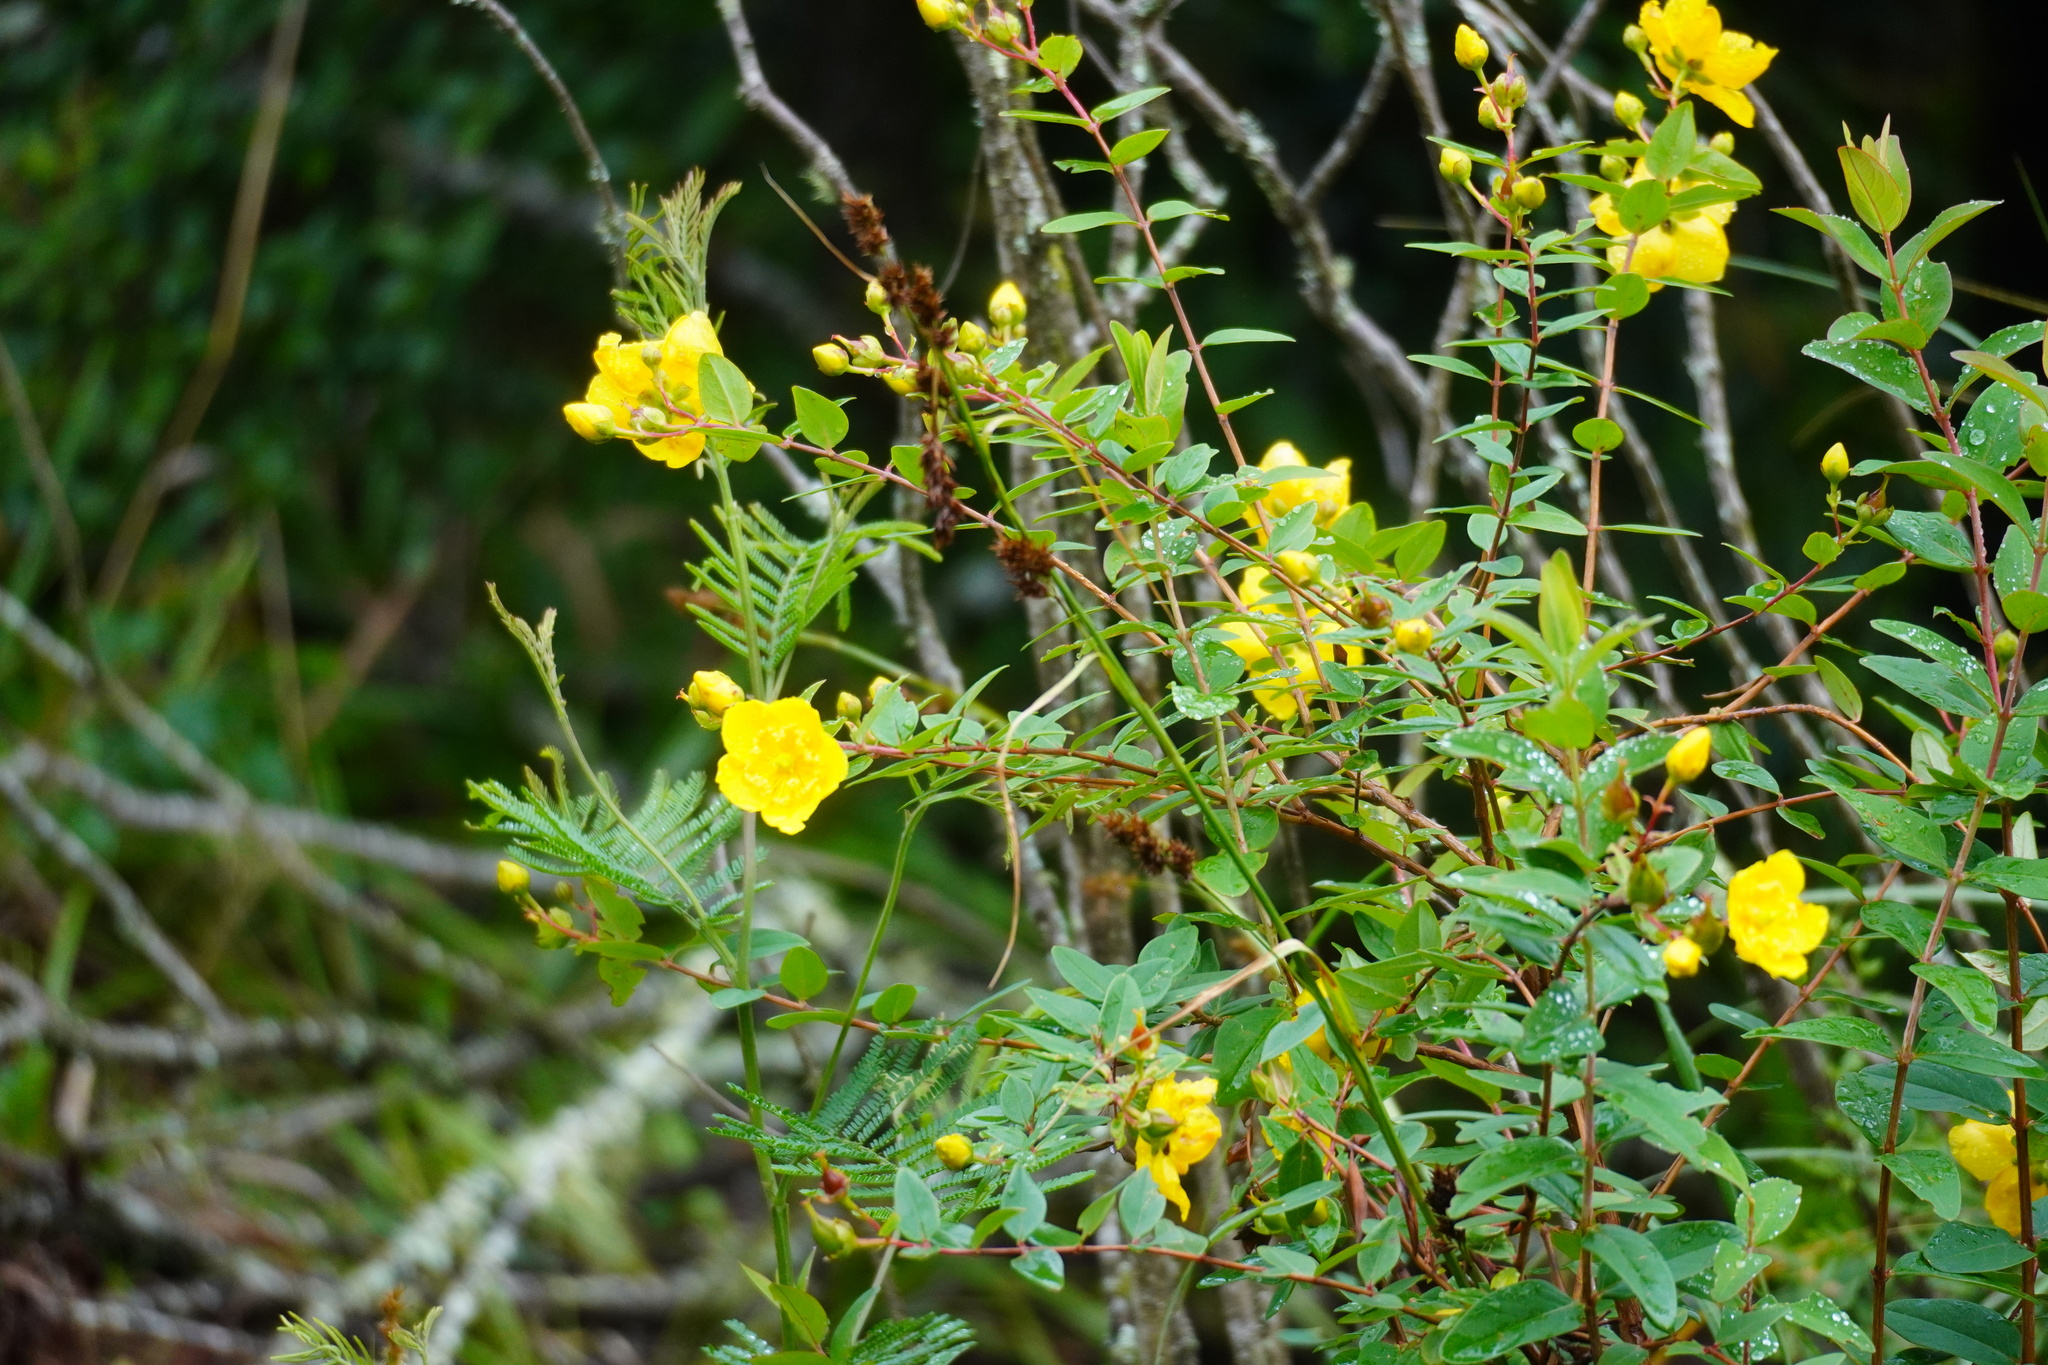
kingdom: Plantae
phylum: Tracheophyta
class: Magnoliopsida
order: Malpighiales
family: Hypericaceae
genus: Hypericum
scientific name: Hypericum forrestii
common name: Forrest's tutsan
